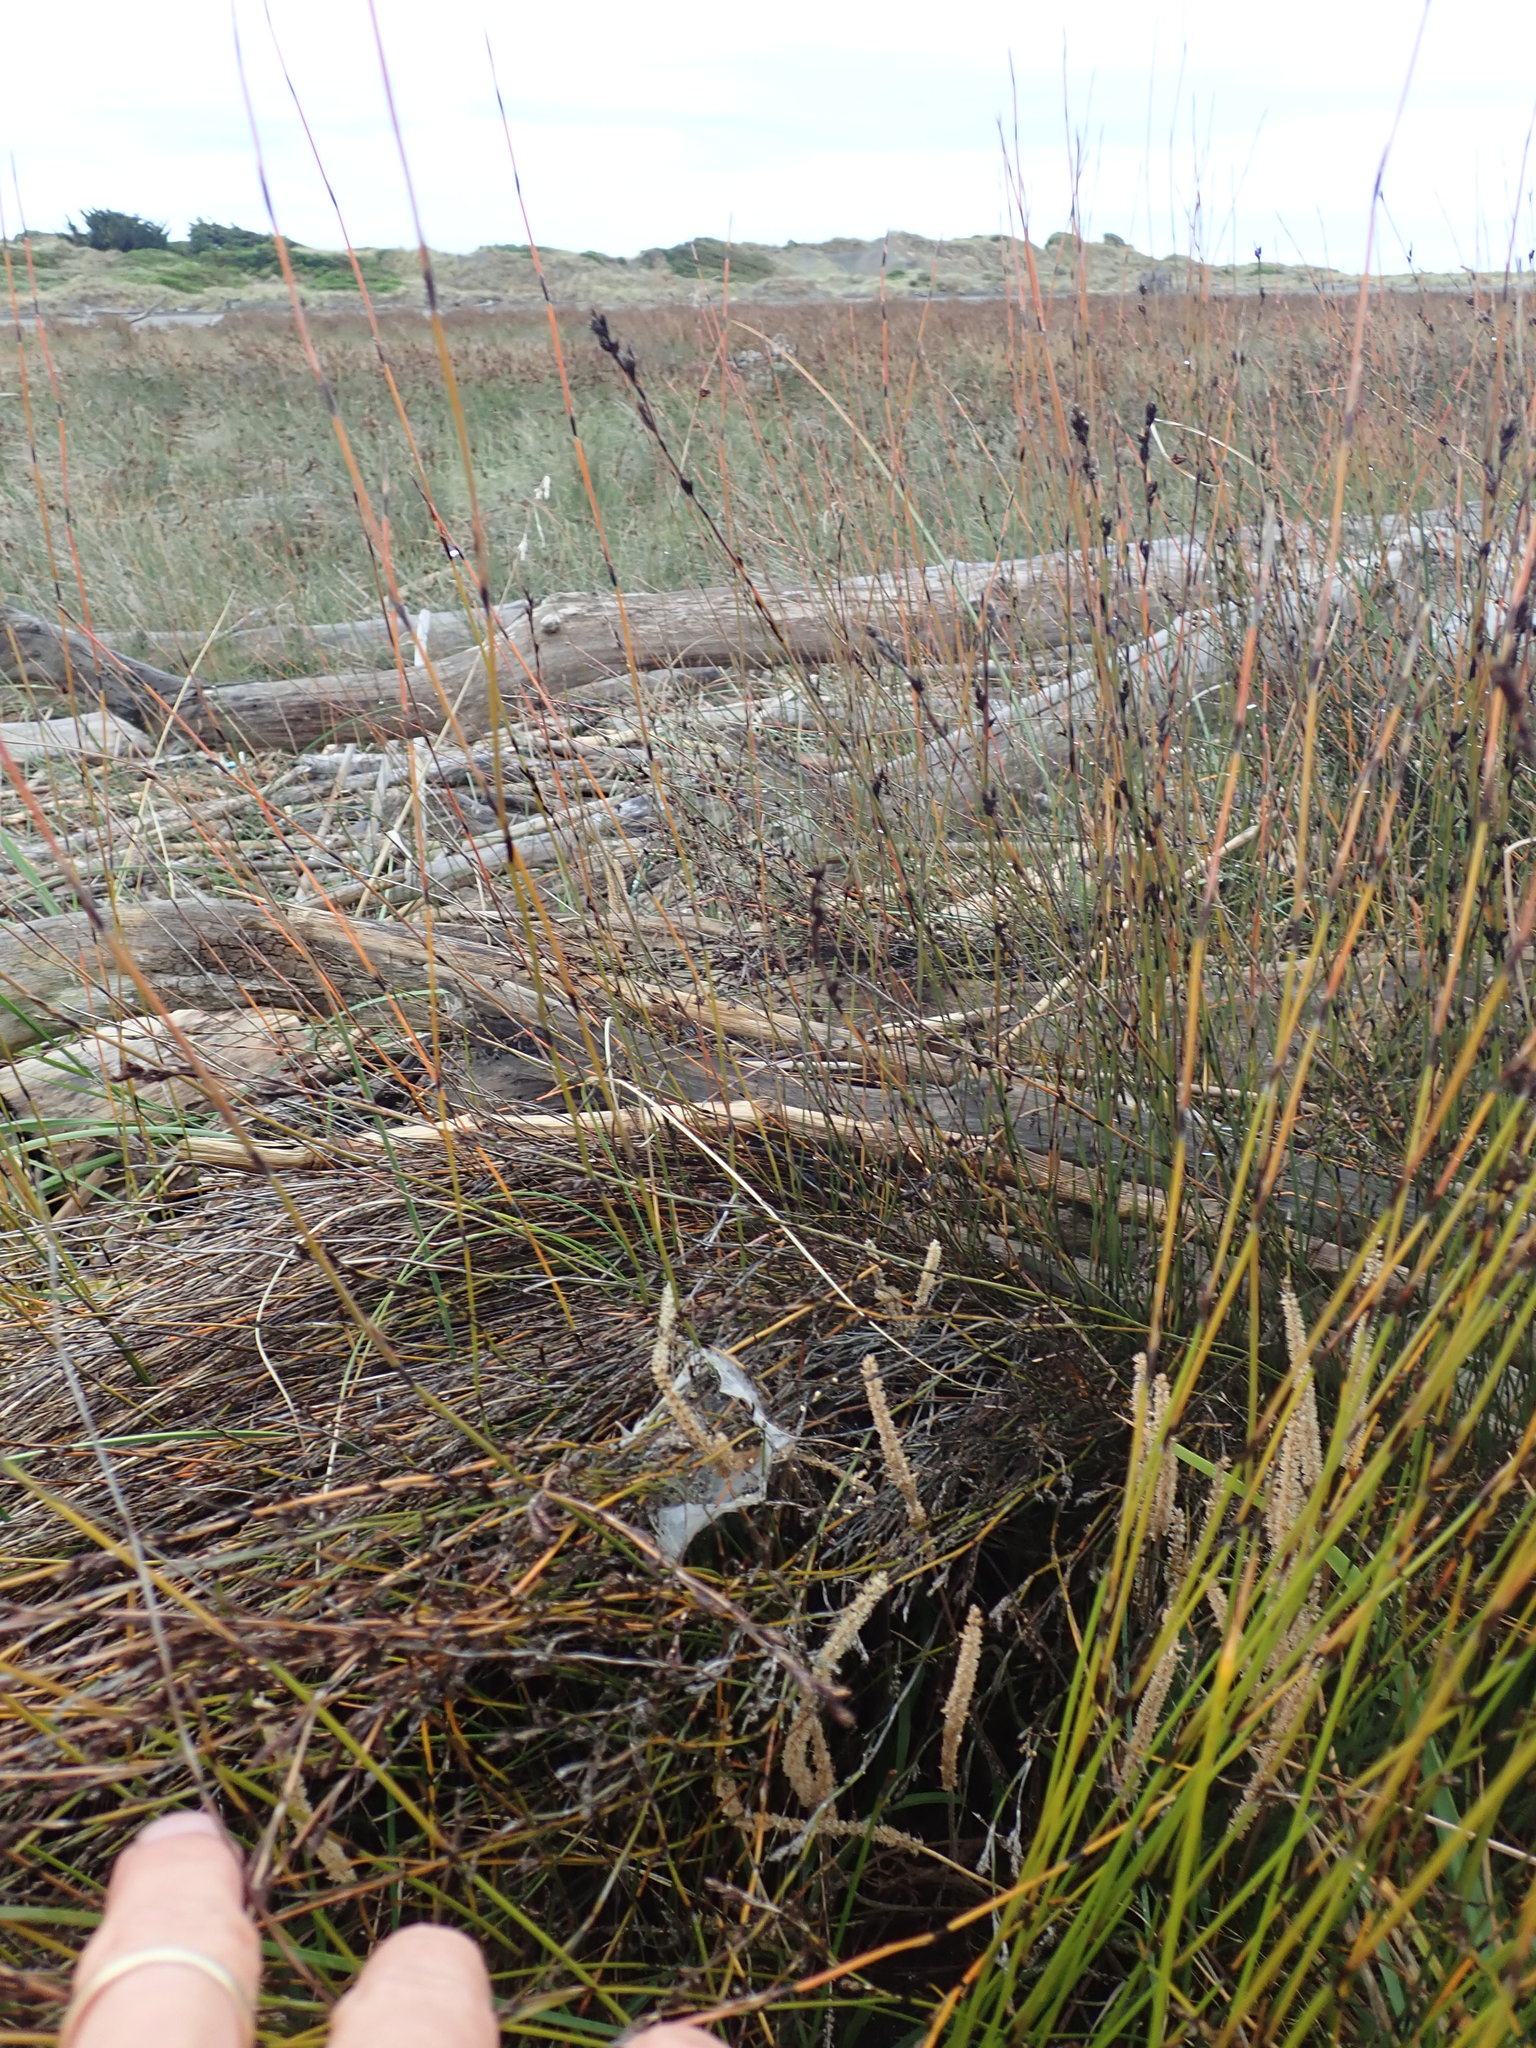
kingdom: Animalia
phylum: Arthropoda
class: Arachnida
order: Araneae
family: Pisauridae
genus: Dolomedes
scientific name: Dolomedes minor
